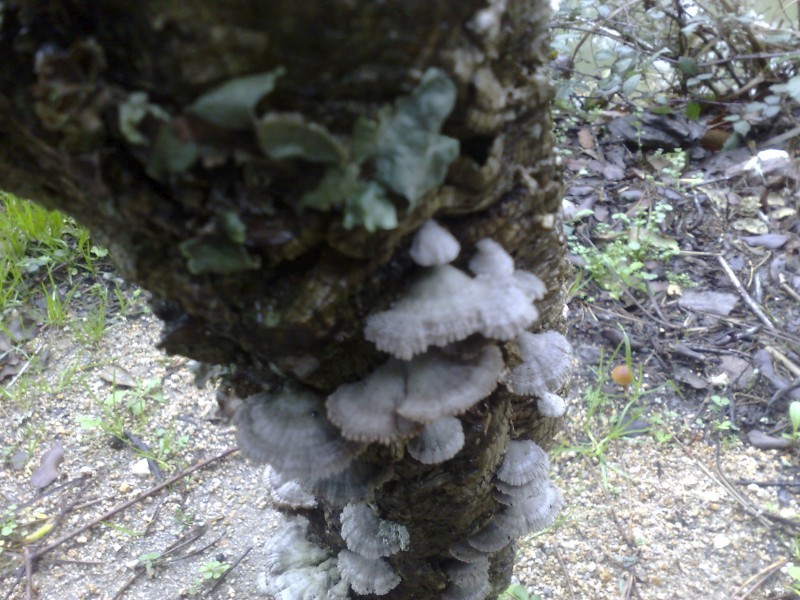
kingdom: Fungi
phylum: Basidiomycota
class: Agaricomycetes
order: Agaricales
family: Schizophyllaceae
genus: Schizophyllum
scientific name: Schizophyllum commune
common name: Common porecrust
